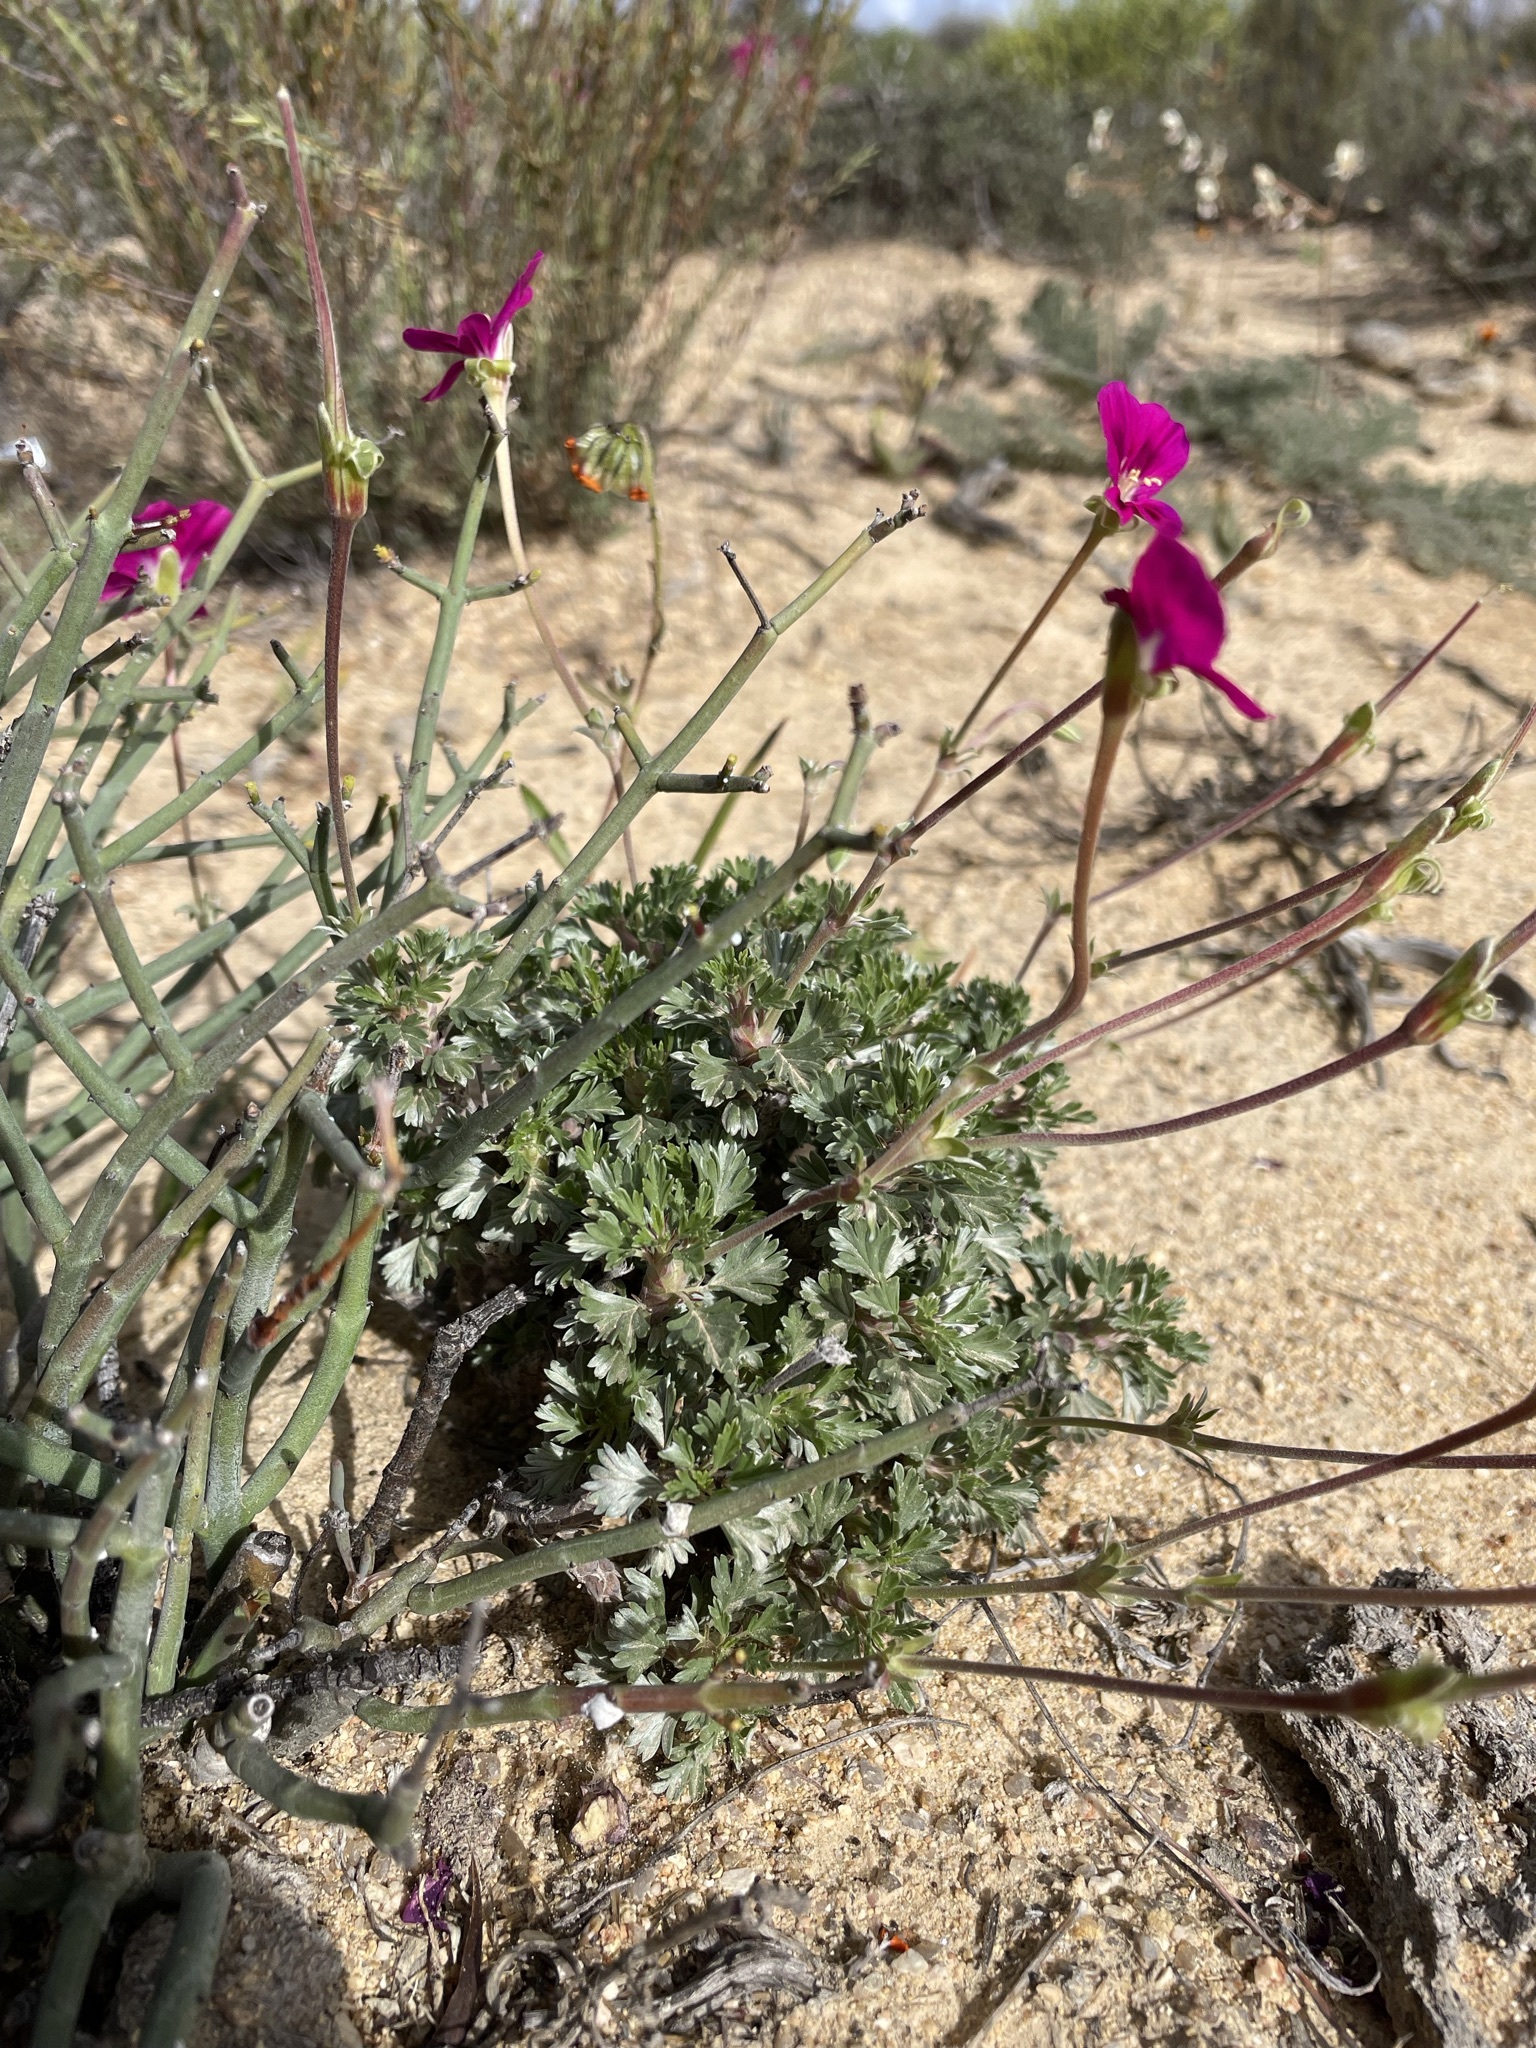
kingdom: Plantae
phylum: Tracheophyta
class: Magnoliopsida
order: Geraniales
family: Geraniaceae
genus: Pelargonium
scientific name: Pelargonium sericifolium
